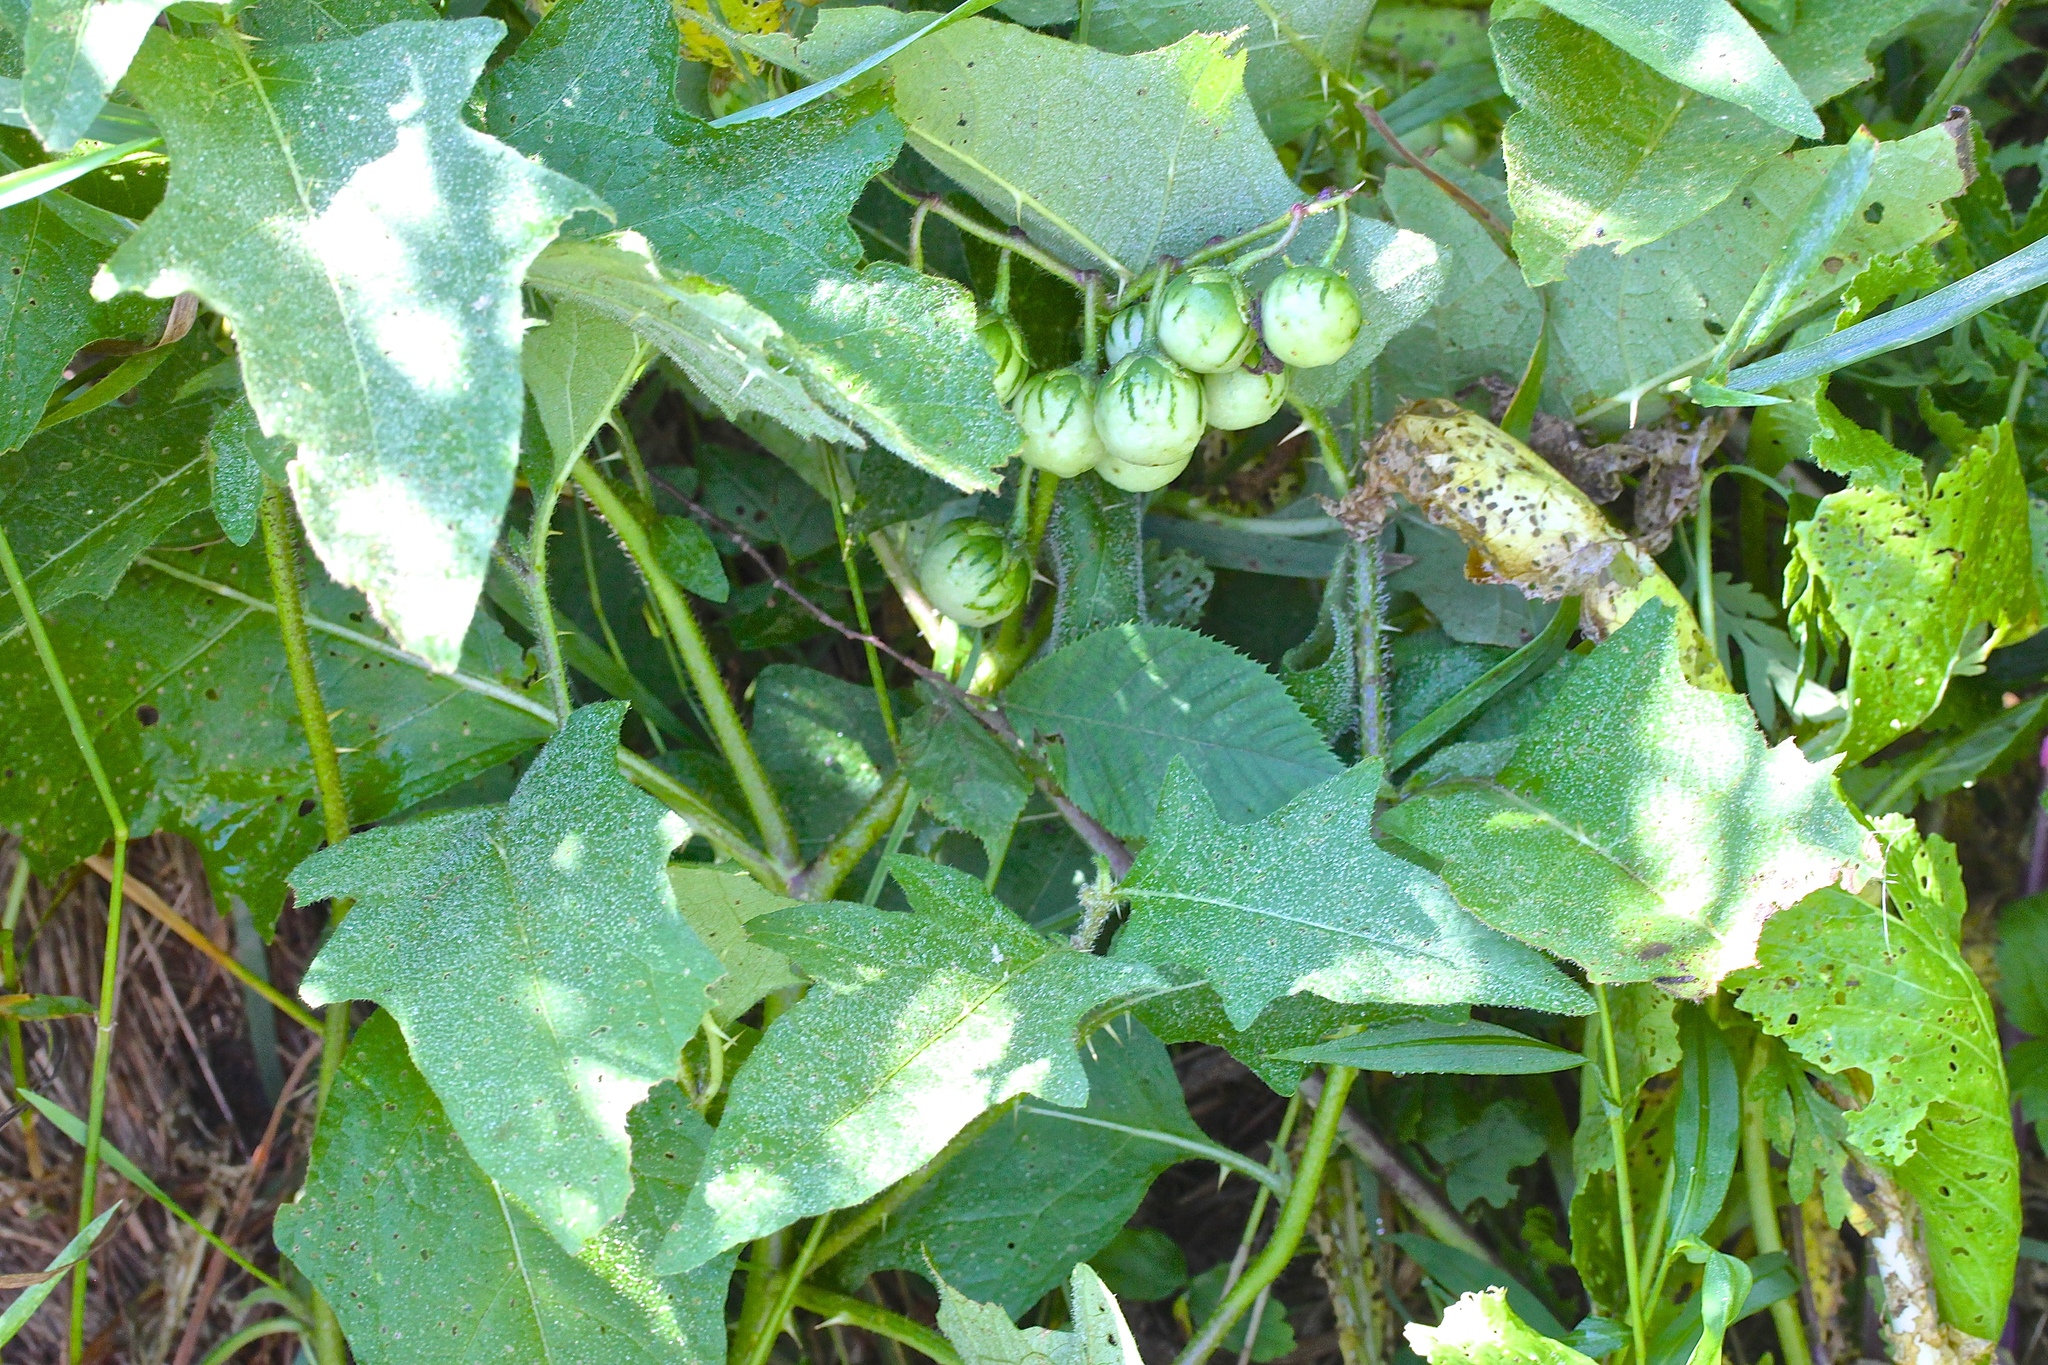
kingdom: Plantae
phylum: Tracheophyta
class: Magnoliopsida
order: Solanales
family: Solanaceae
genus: Solanum
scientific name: Solanum carolinense
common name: Horse-nettle
